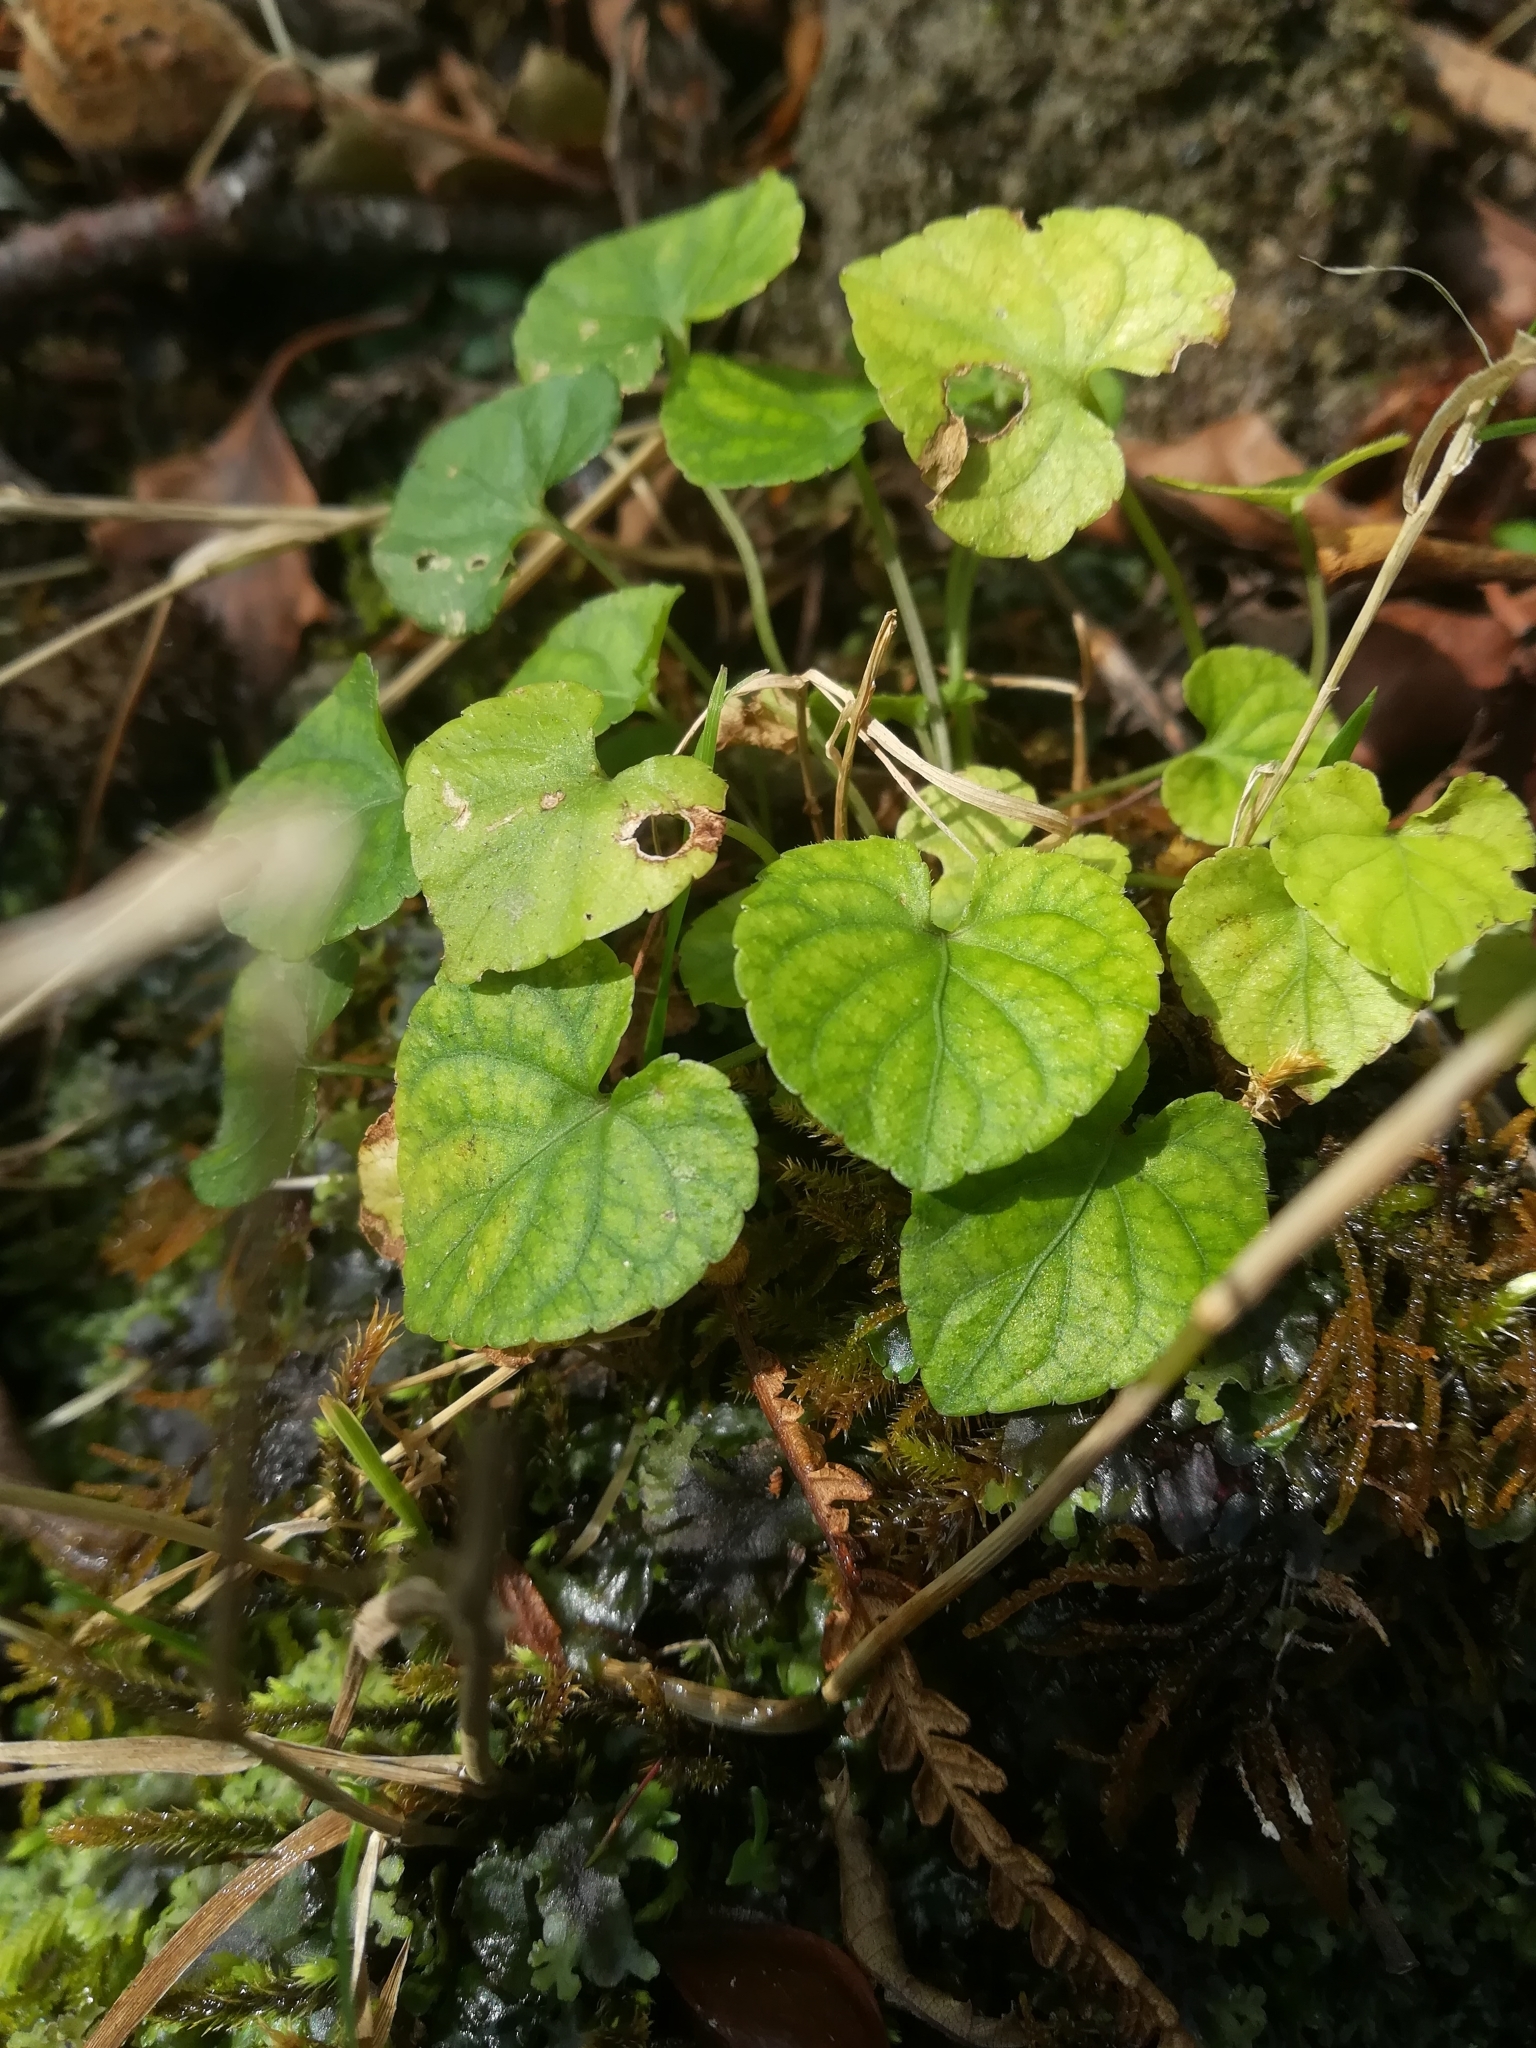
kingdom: Plantae
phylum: Tracheophyta
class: Magnoliopsida
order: Malpighiales
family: Violaceae
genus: Viola
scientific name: Viola
